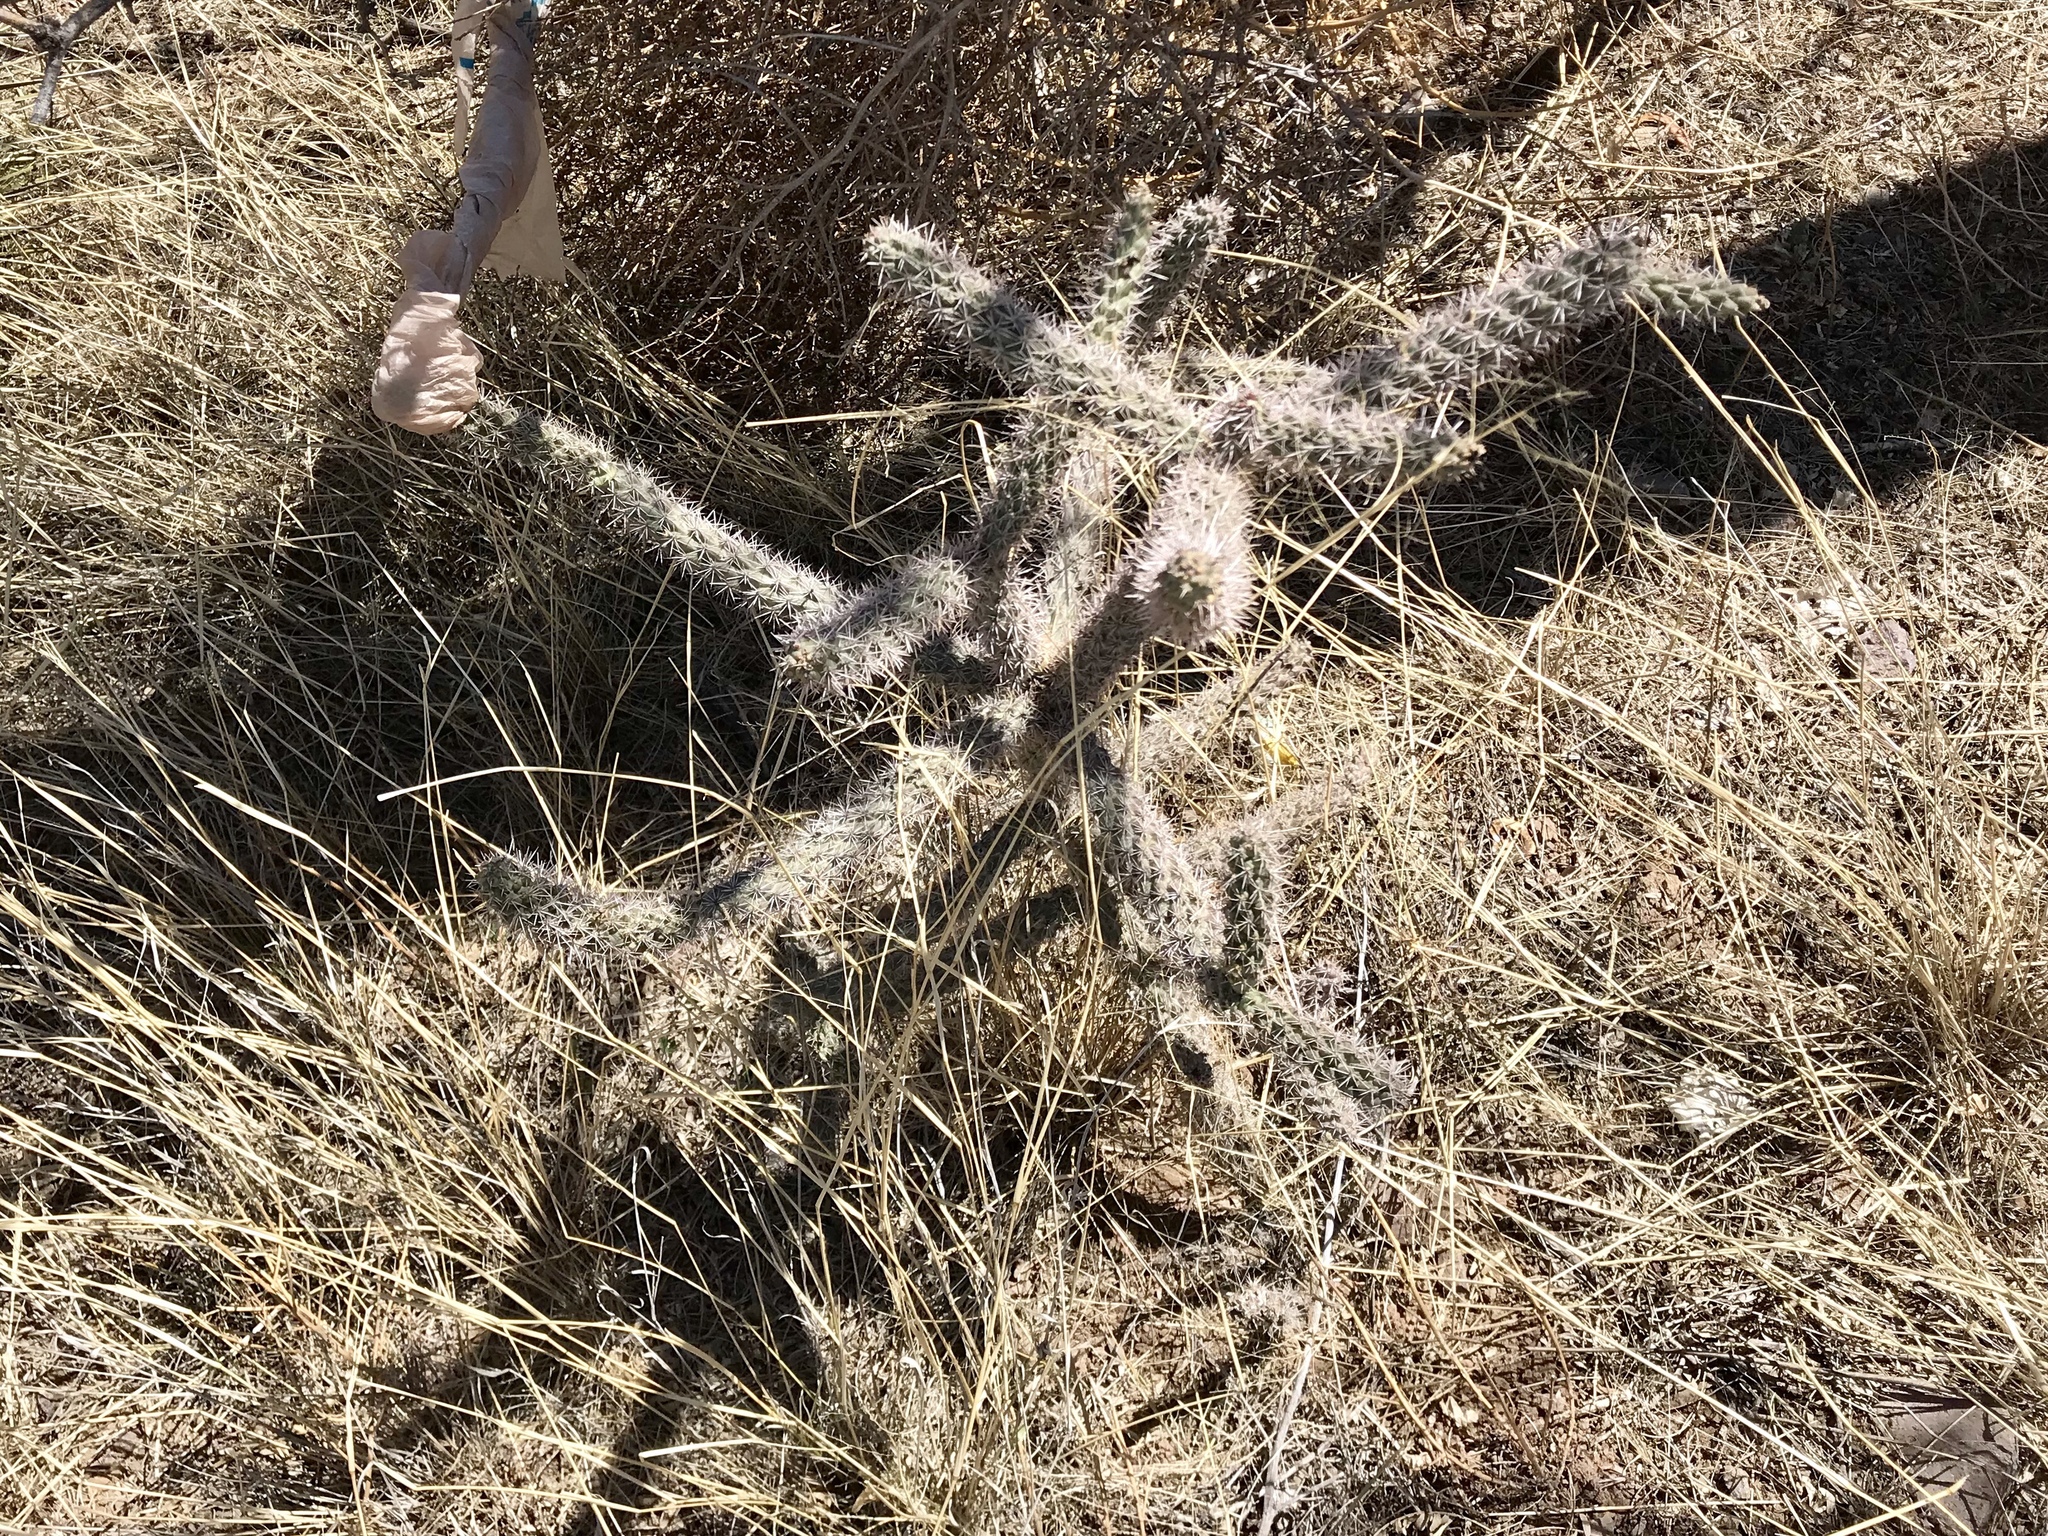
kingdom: Plantae
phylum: Tracheophyta
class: Magnoliopsida
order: Caryophyllales
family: Cactaceae
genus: Cylindropuntia
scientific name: Cylindropuntia imbricata
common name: Candelabrum cactus
